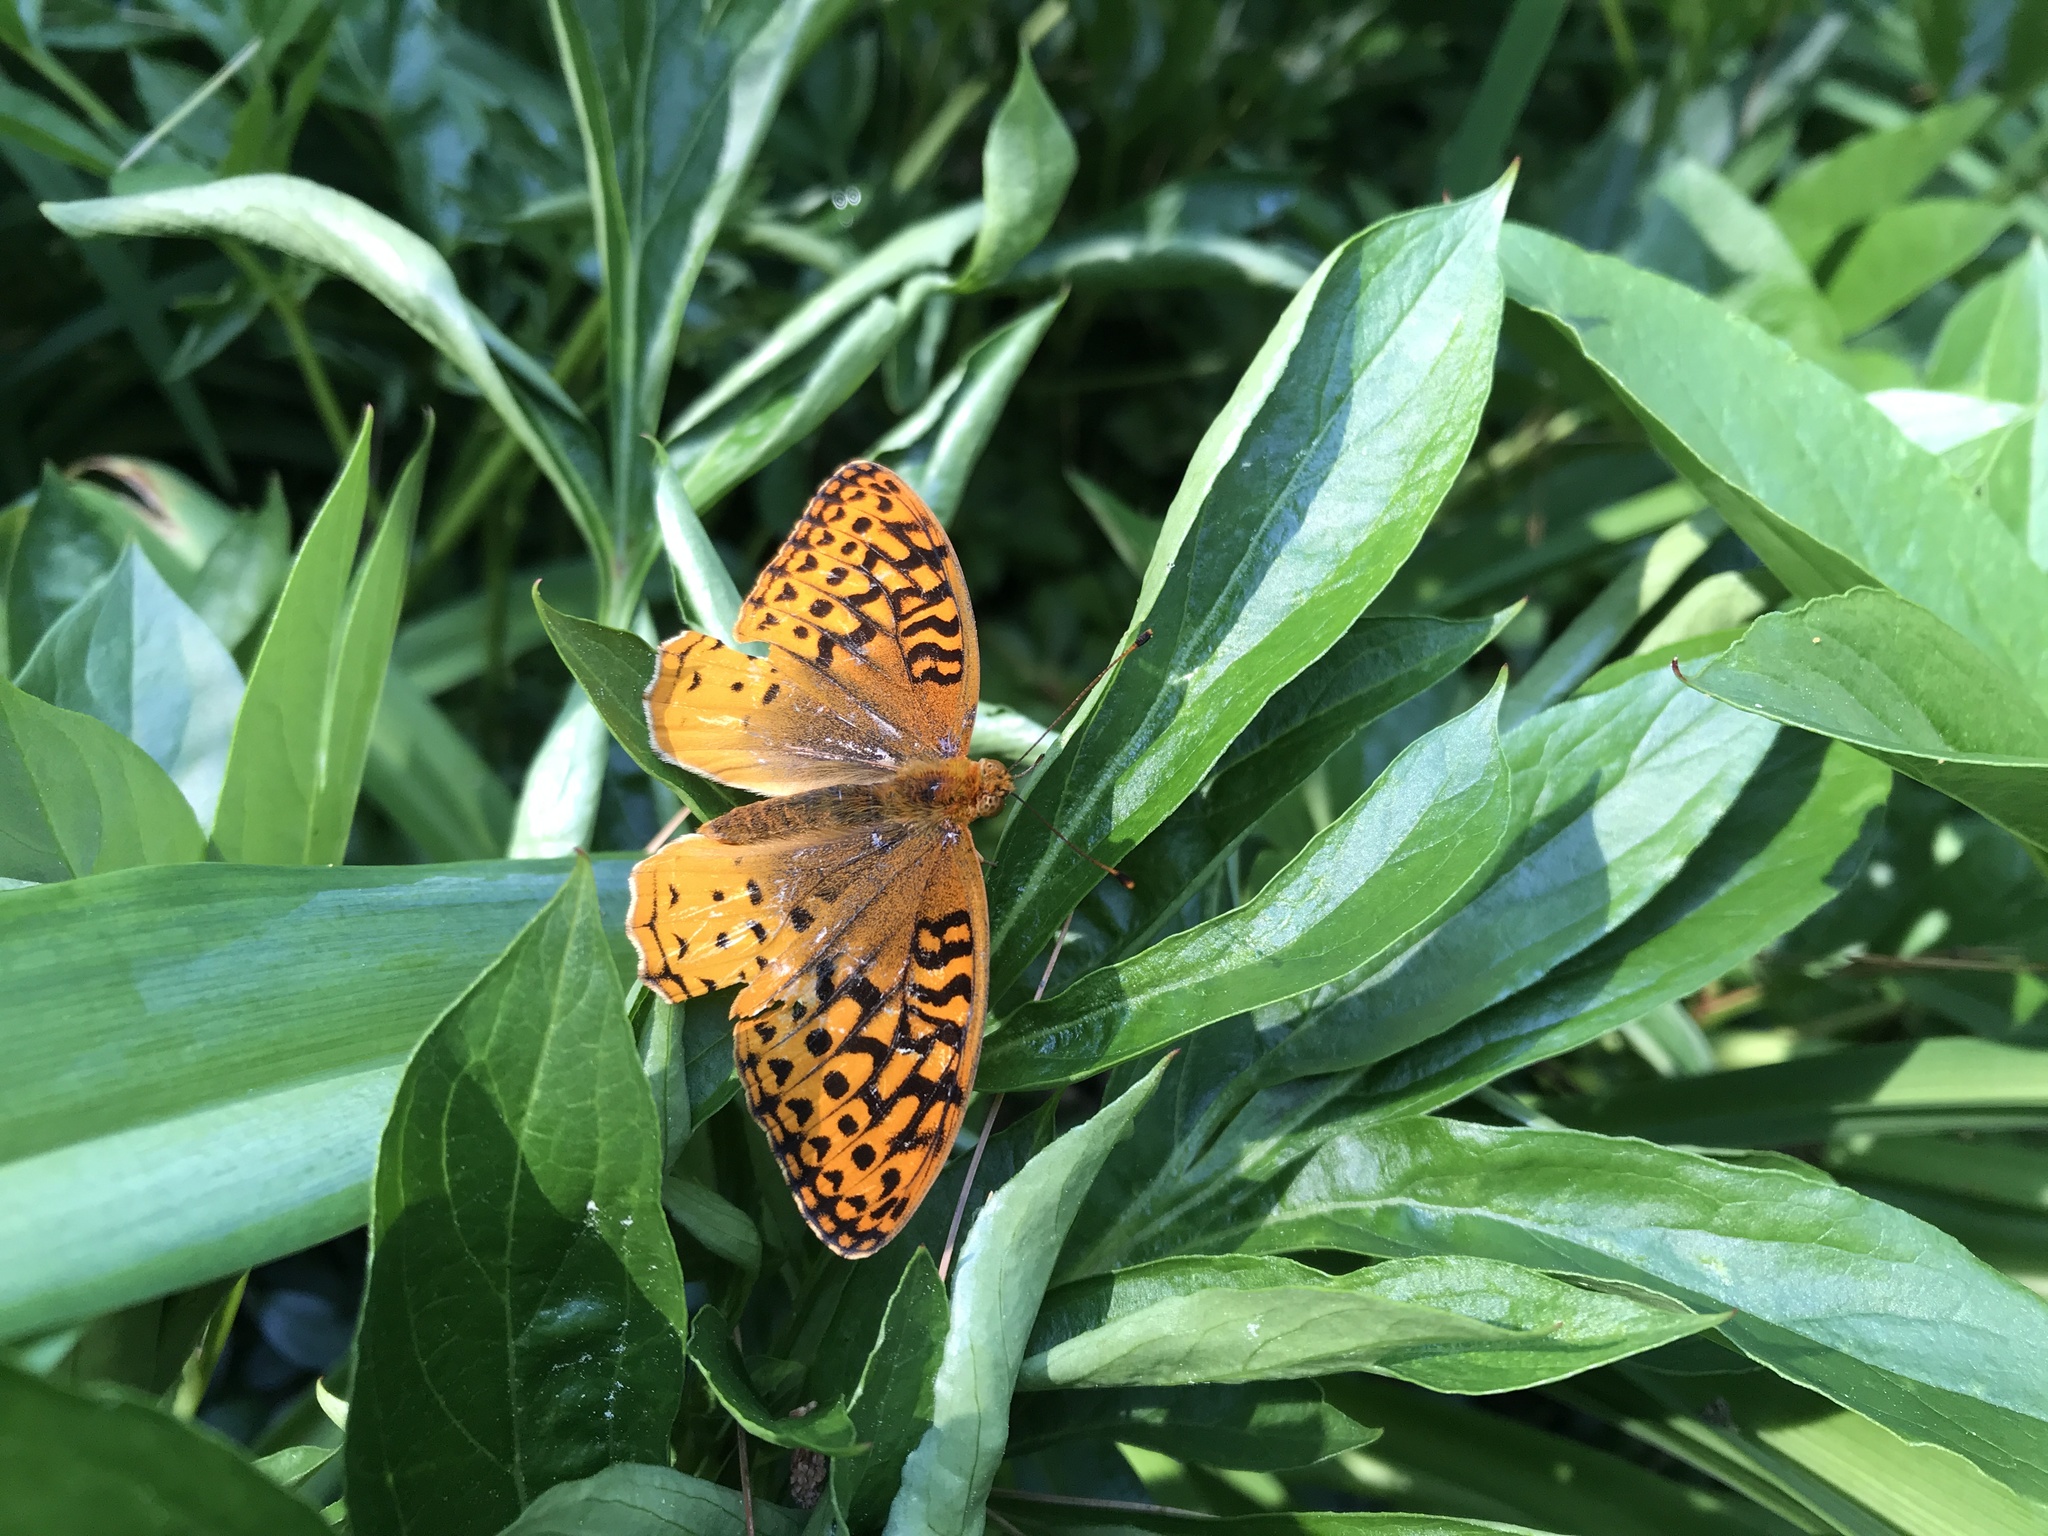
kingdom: Animalia
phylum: Arthropoda
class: Insecta
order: Lepidoptera
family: Nymphalidae
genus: Speyeria
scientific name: Speyeria cybele
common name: Great spangled fritillary
